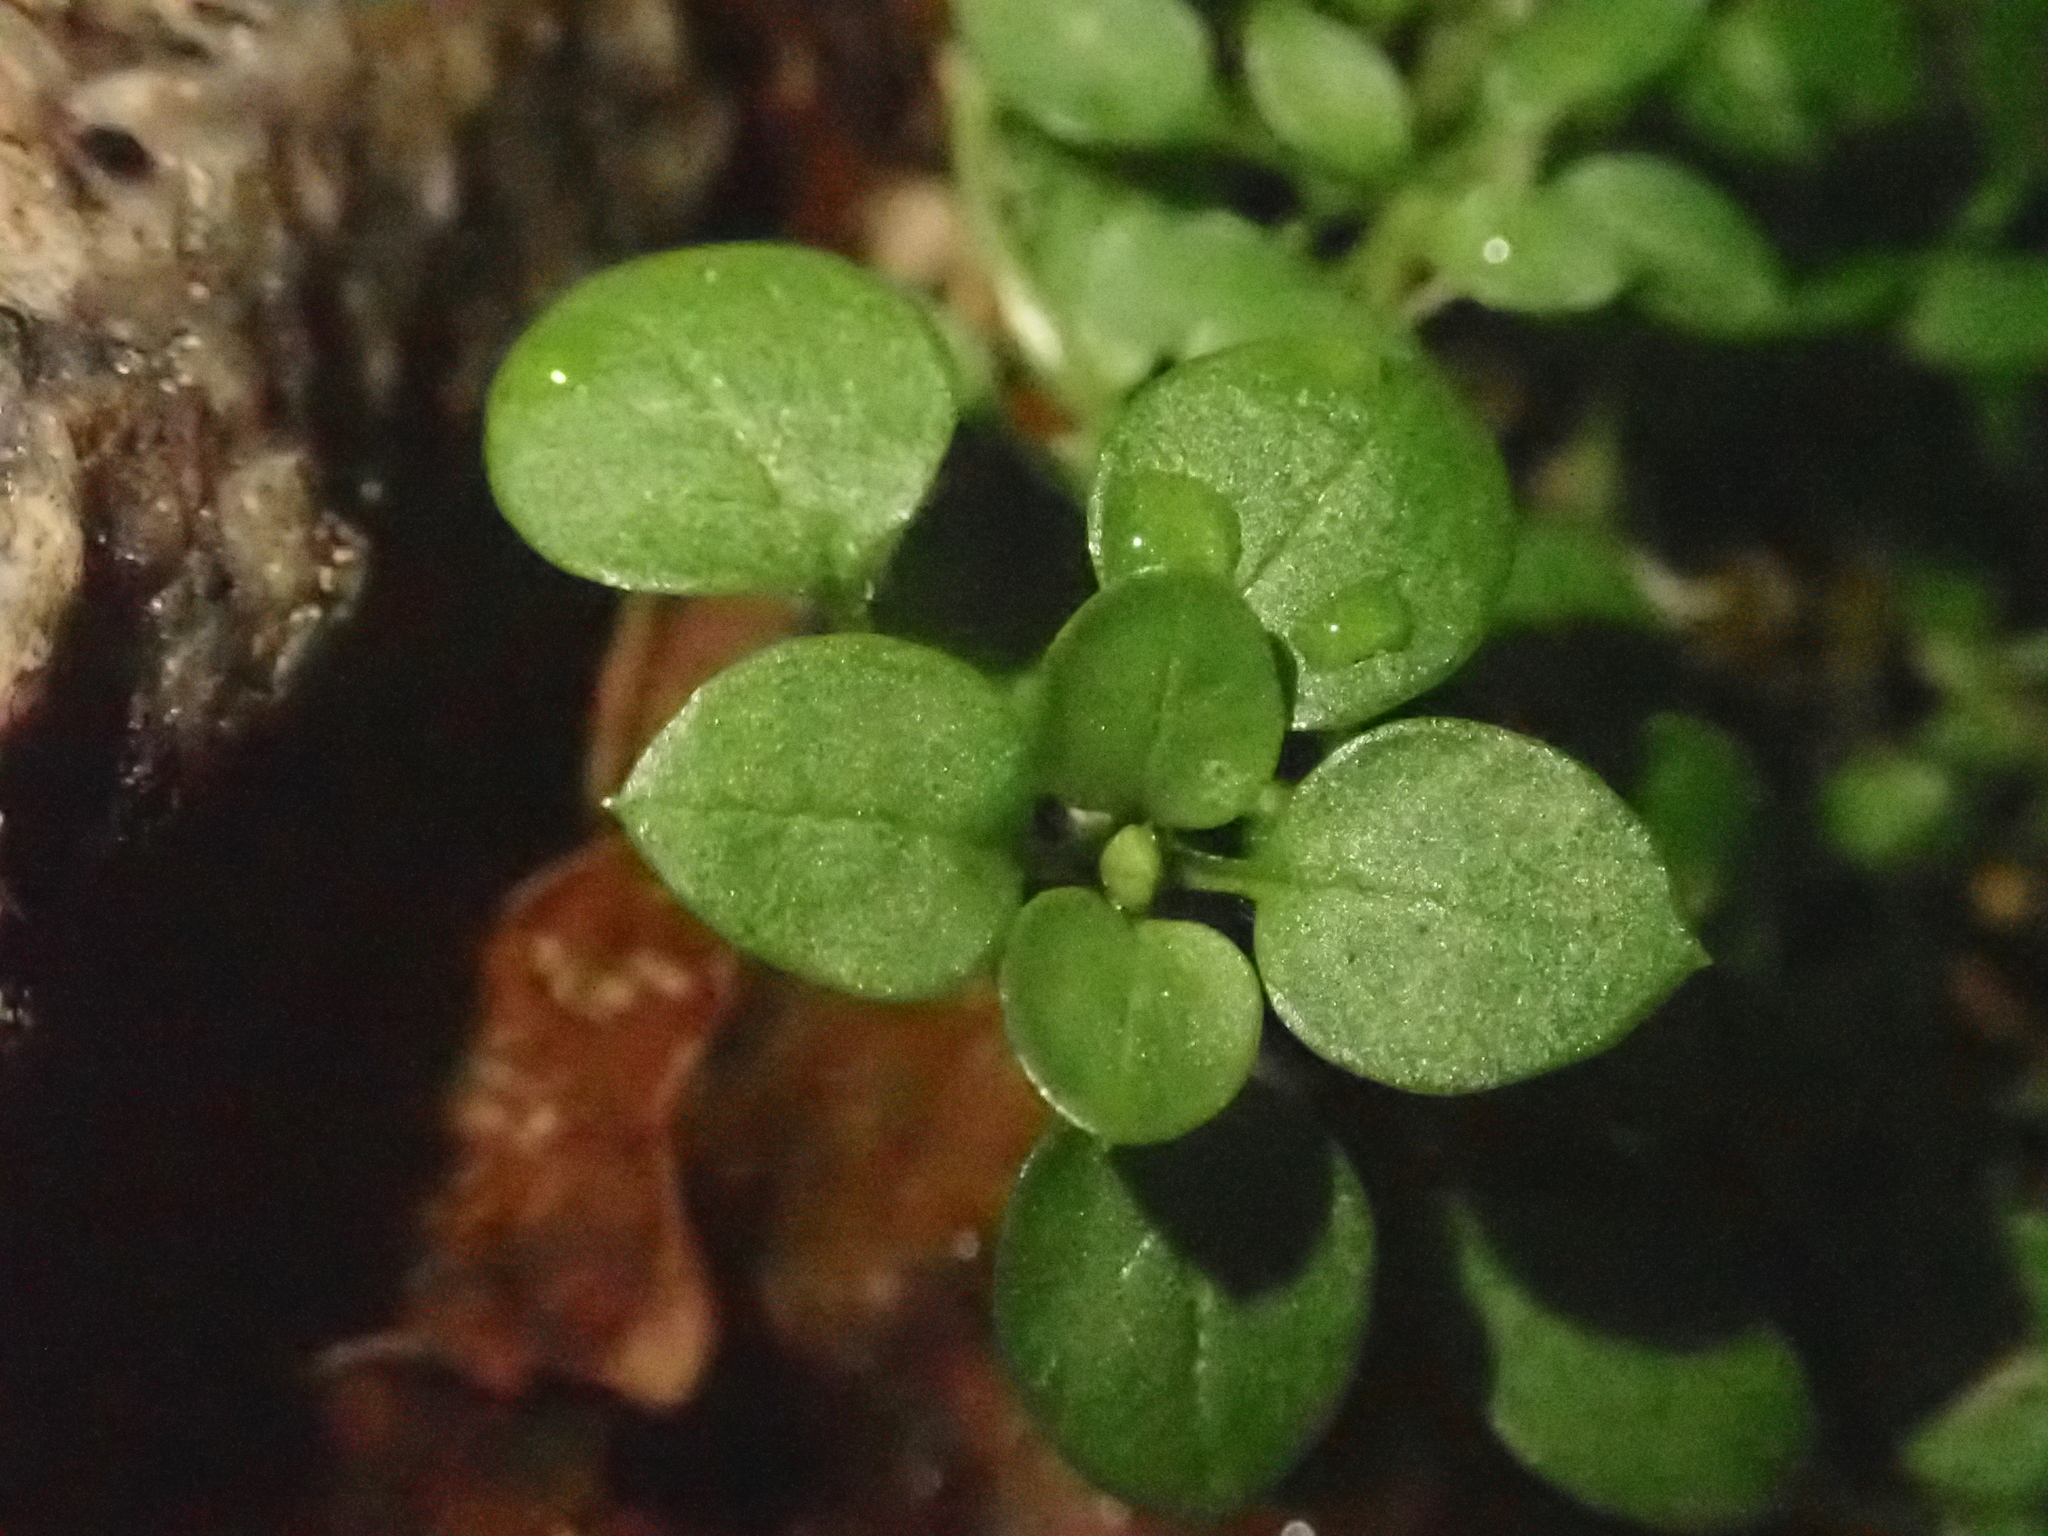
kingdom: Plantae
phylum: Tracheophyta
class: Magnoliopsida
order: Caryophyllales
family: Caryophyllaceae
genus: Stellaria
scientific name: Stellaria media
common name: Common chickweed
